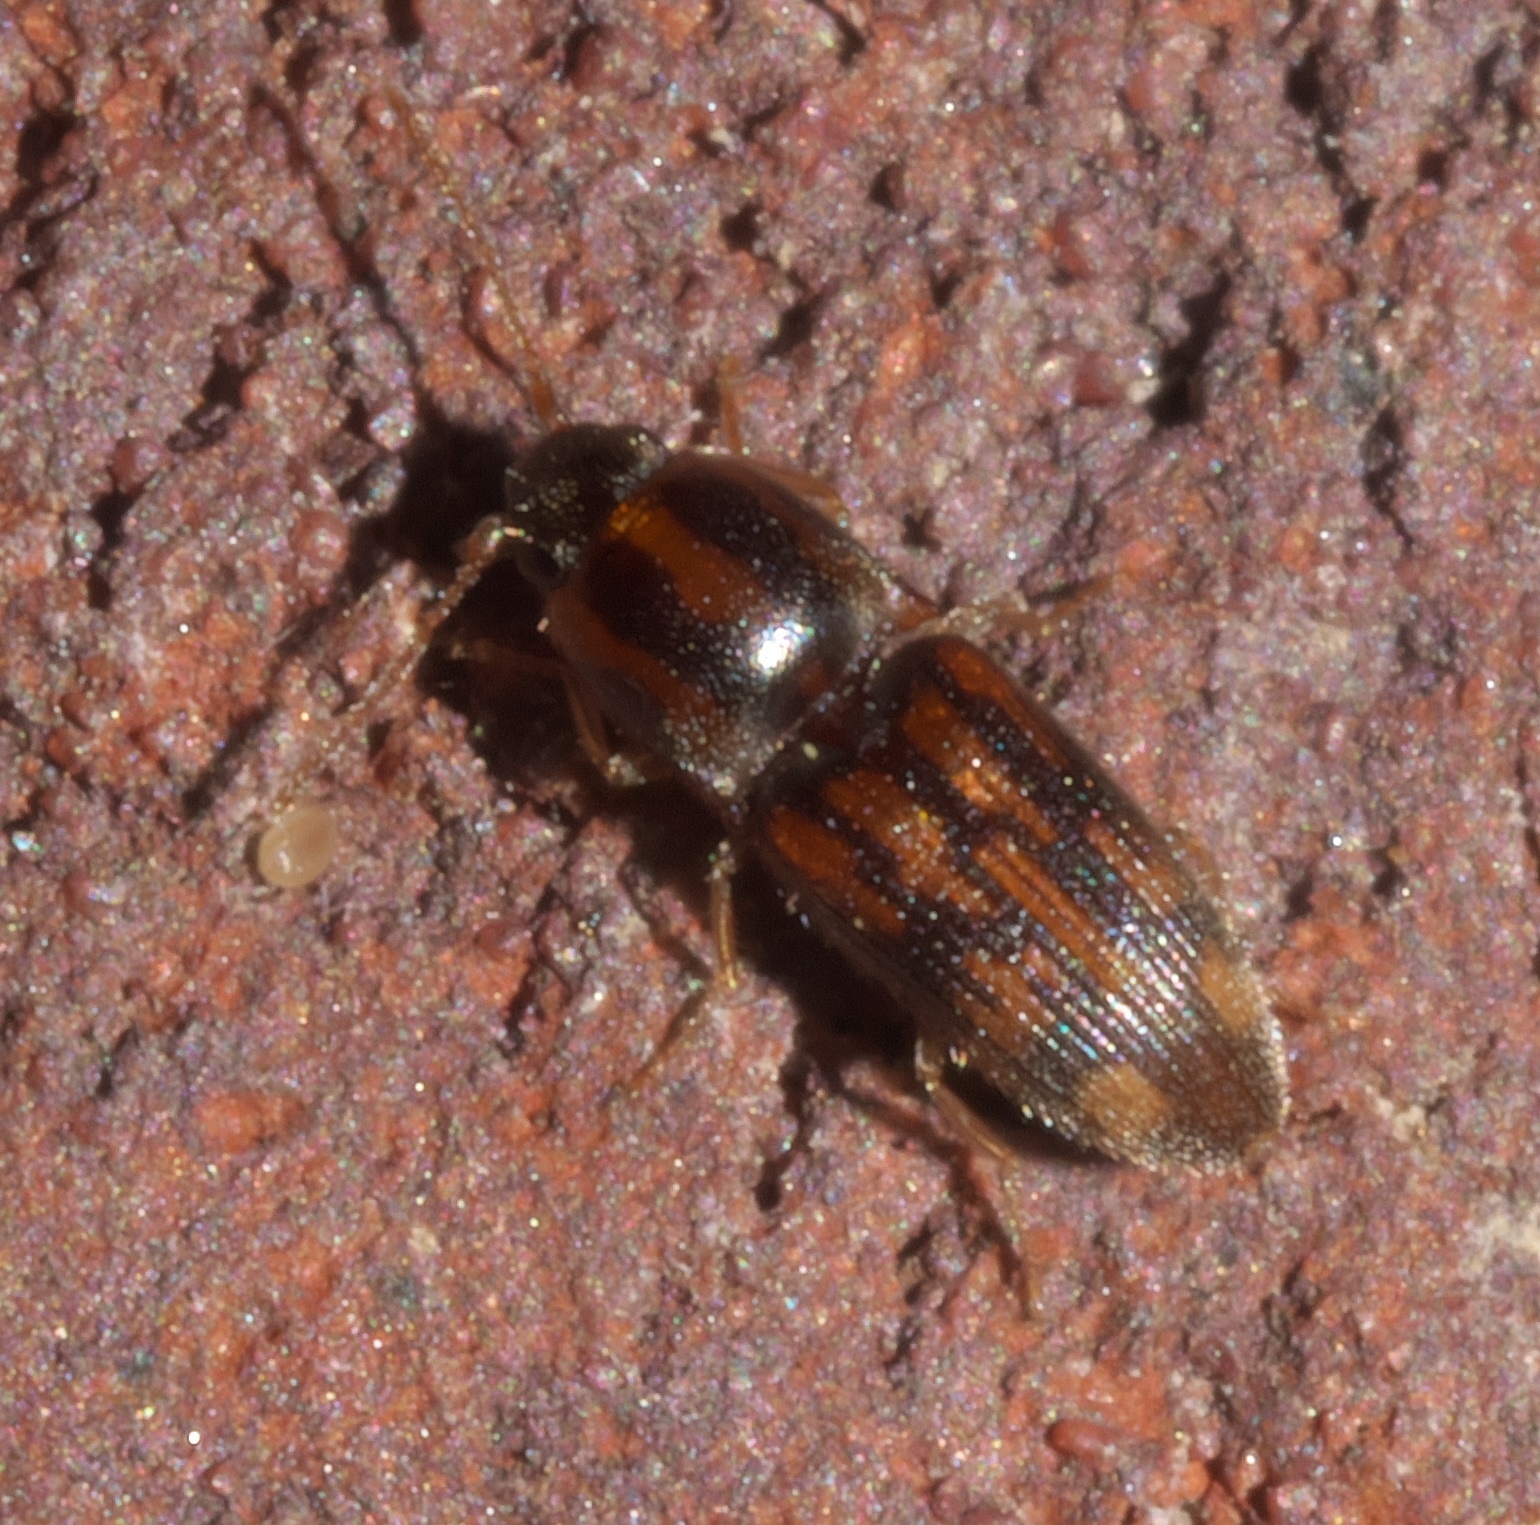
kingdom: Animalia
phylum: Arthropoda
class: Insecta
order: Coleoptera
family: Elateridae
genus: Monocrepidius
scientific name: Monocrepidius bellus
